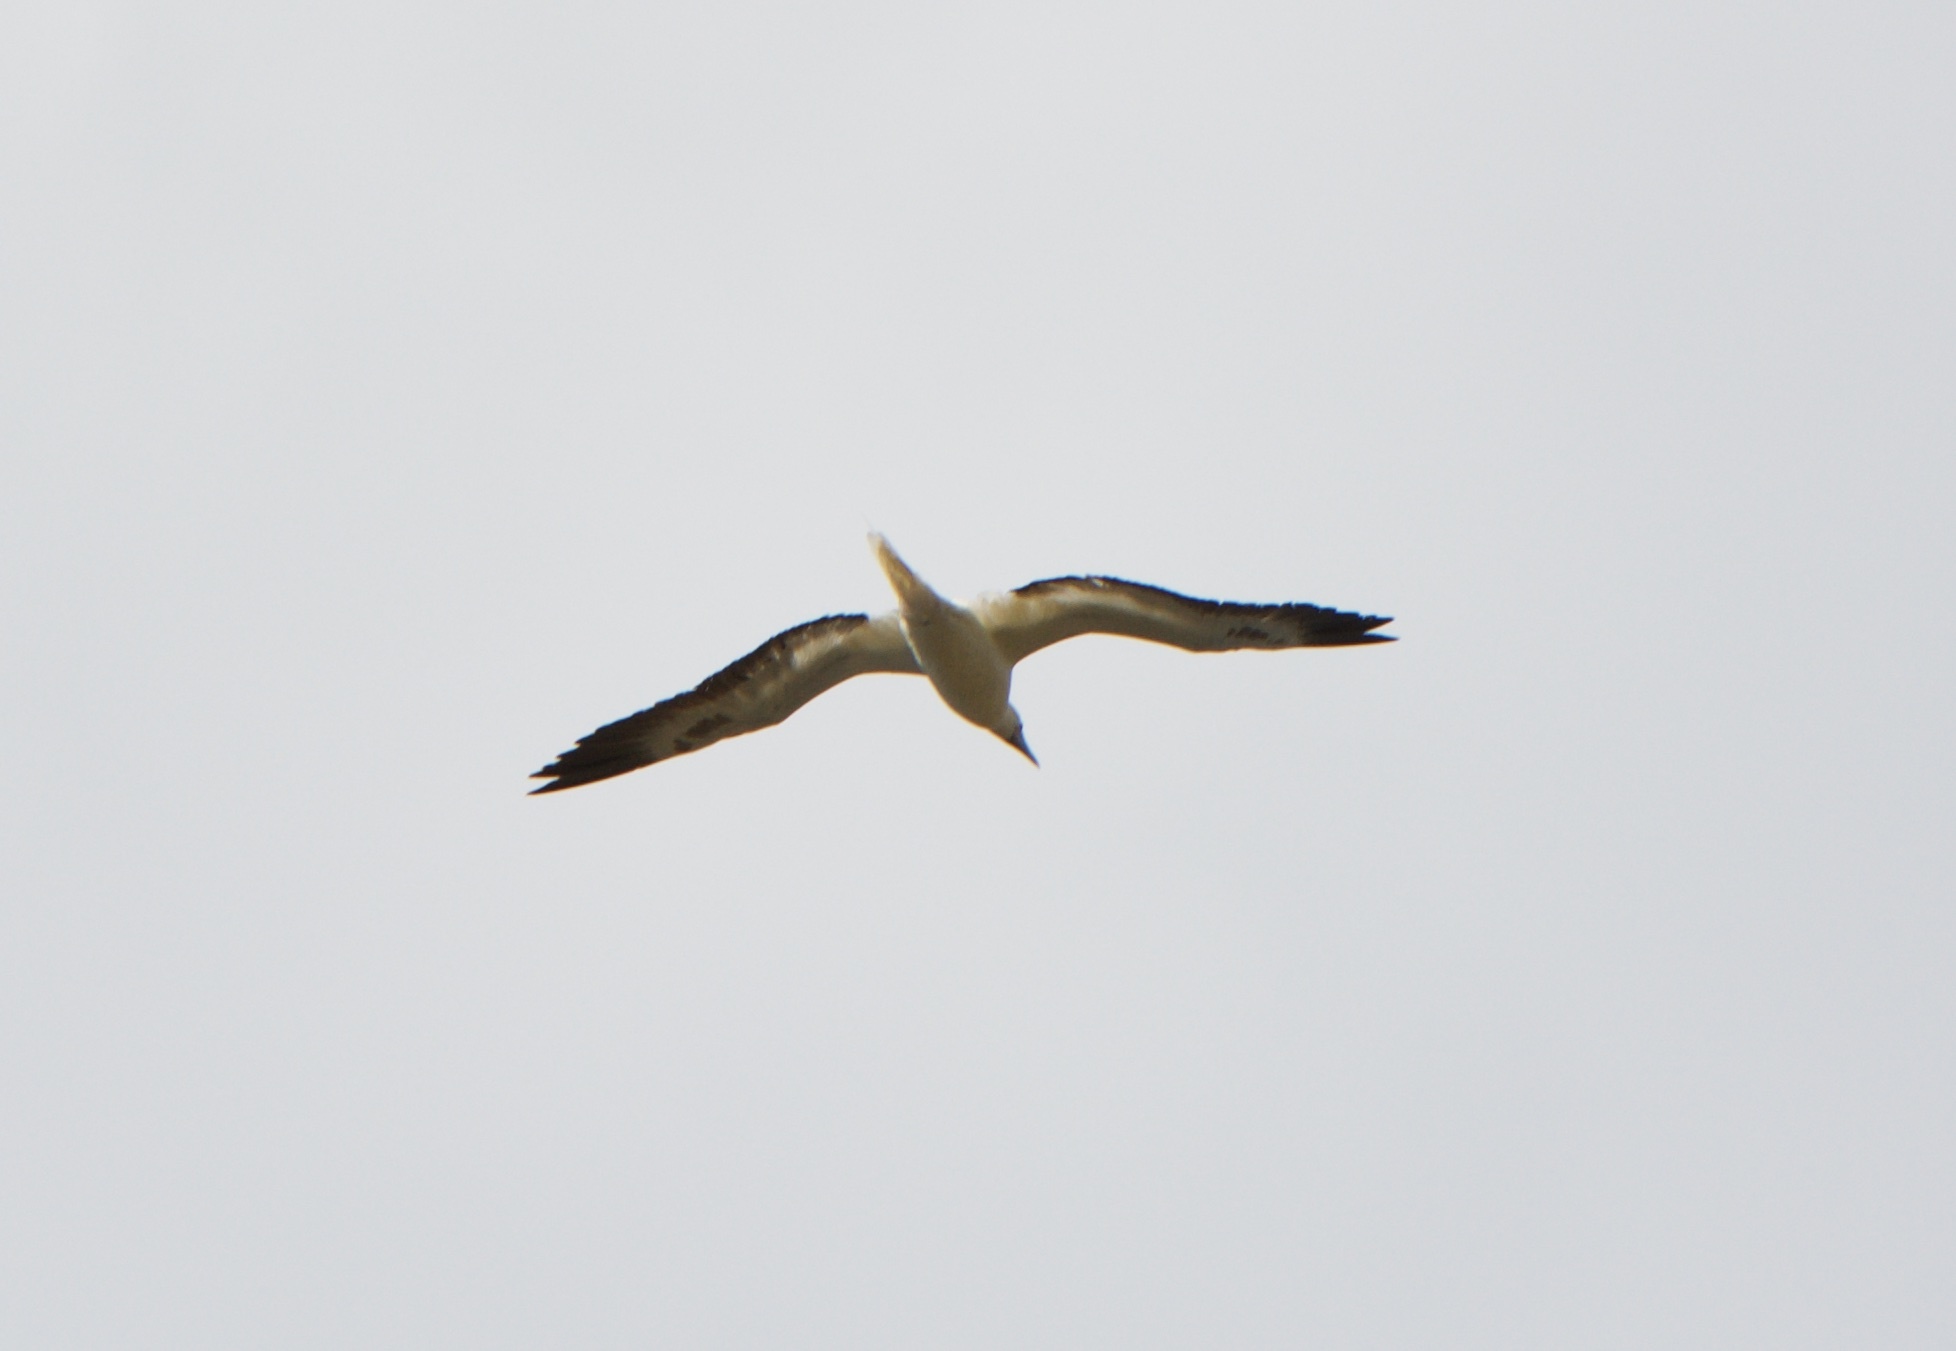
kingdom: Animalia
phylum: Chordata
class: Aves
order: Suliformes
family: Sulidae
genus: Sula
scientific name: Sula sula
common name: Red-footed booby
